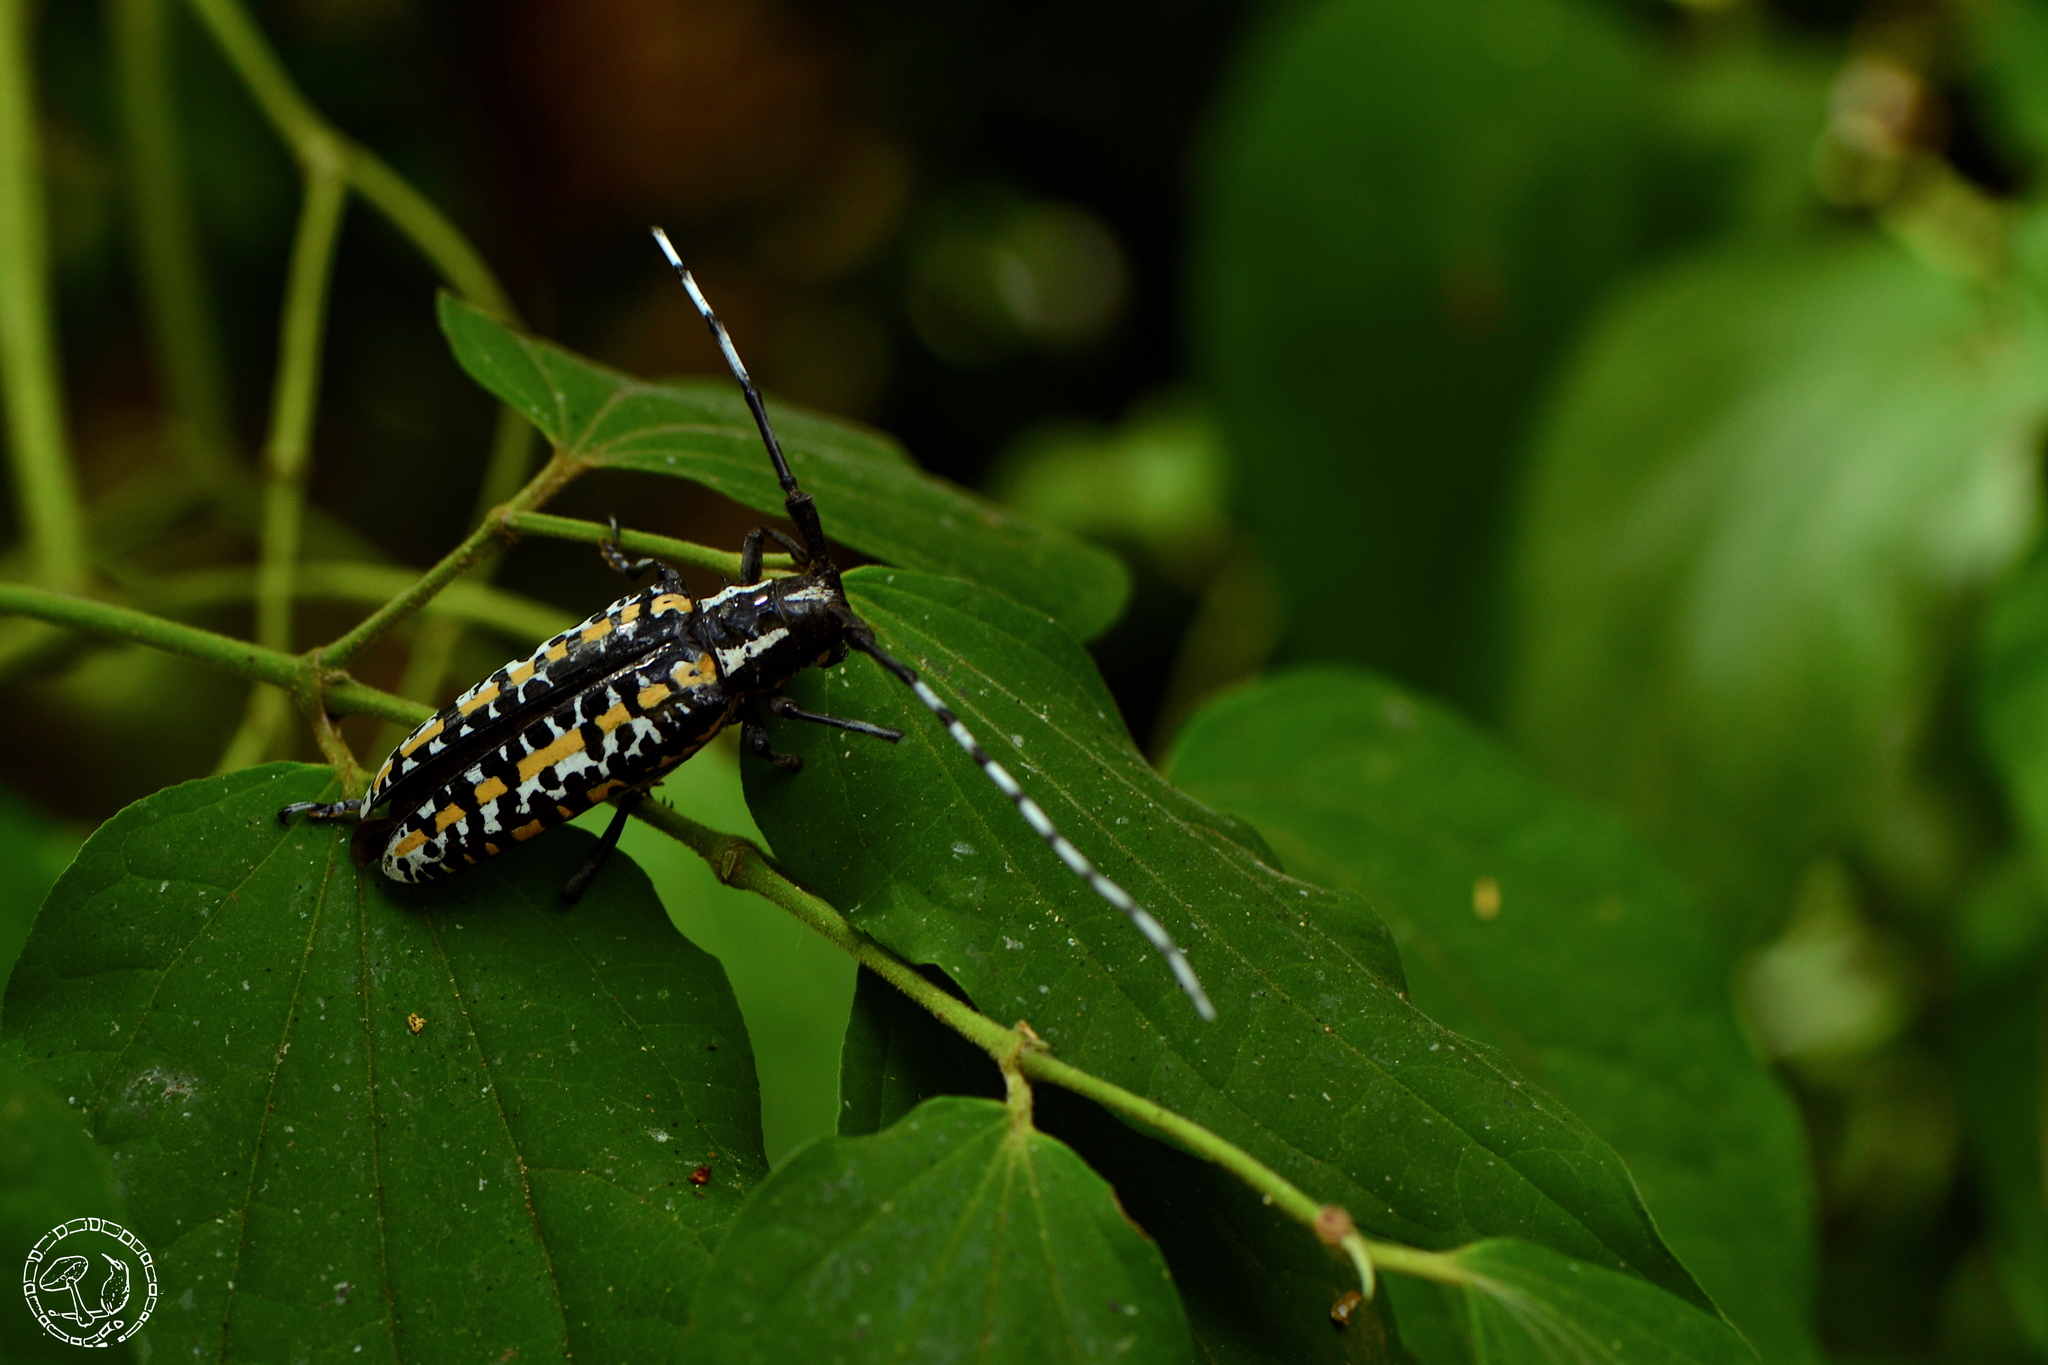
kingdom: Animalia
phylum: Arthropoda
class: Insecta
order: Coleoptera
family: Cerambycidae
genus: Deliathis
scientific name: Deliathis buquetii
